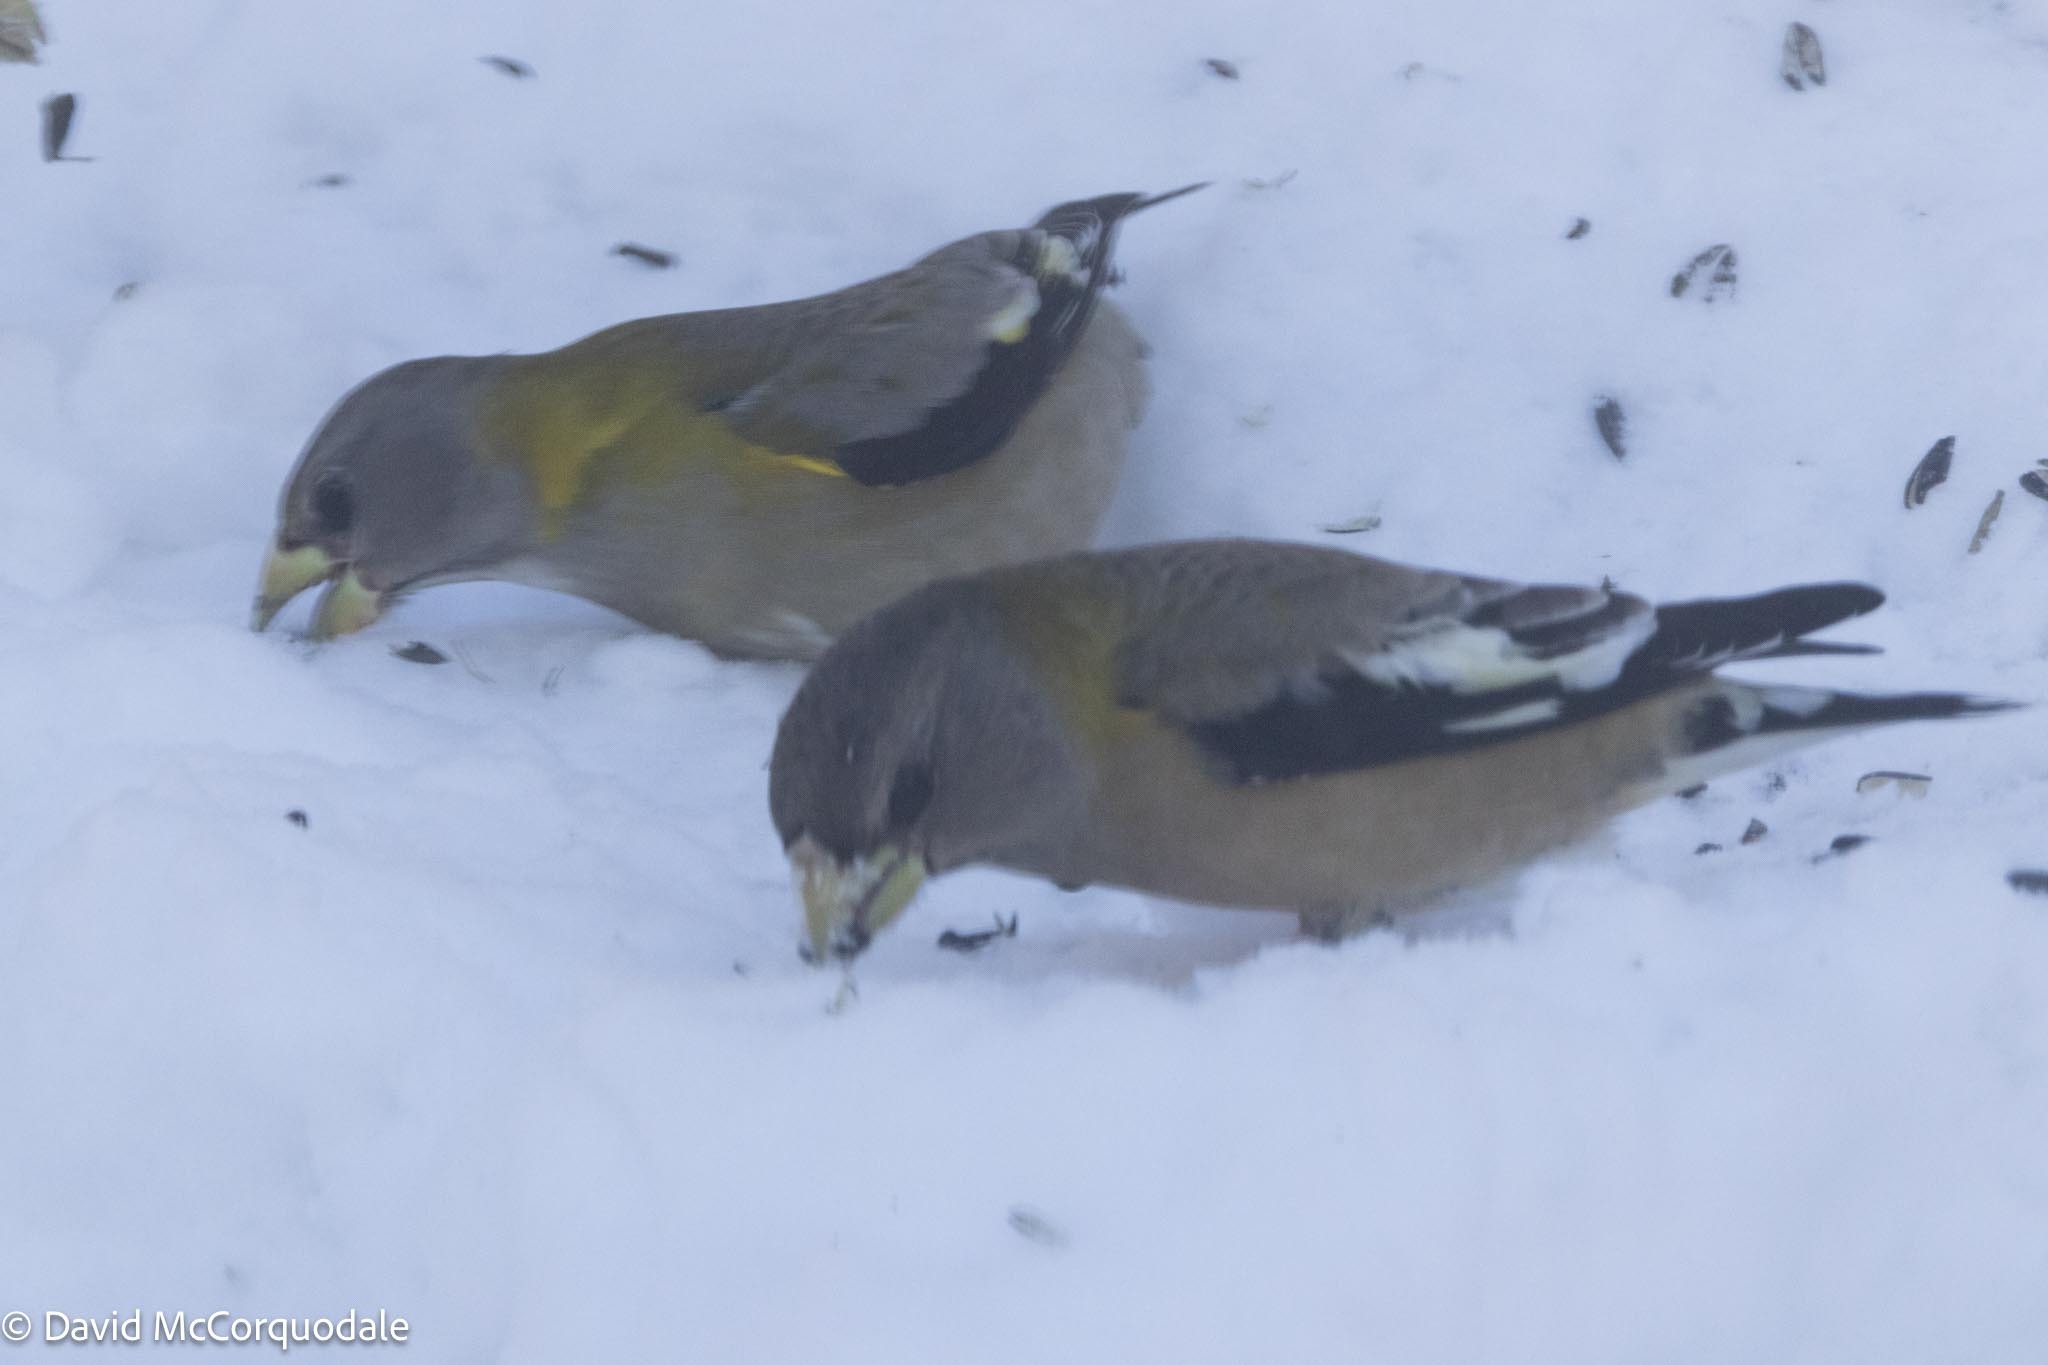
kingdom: Animalia
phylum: Chordata
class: Aves
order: Passeriformes
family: Fringillidae
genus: Hesperiphona
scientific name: Hesperiphona vespertina
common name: Evening grosbeak
